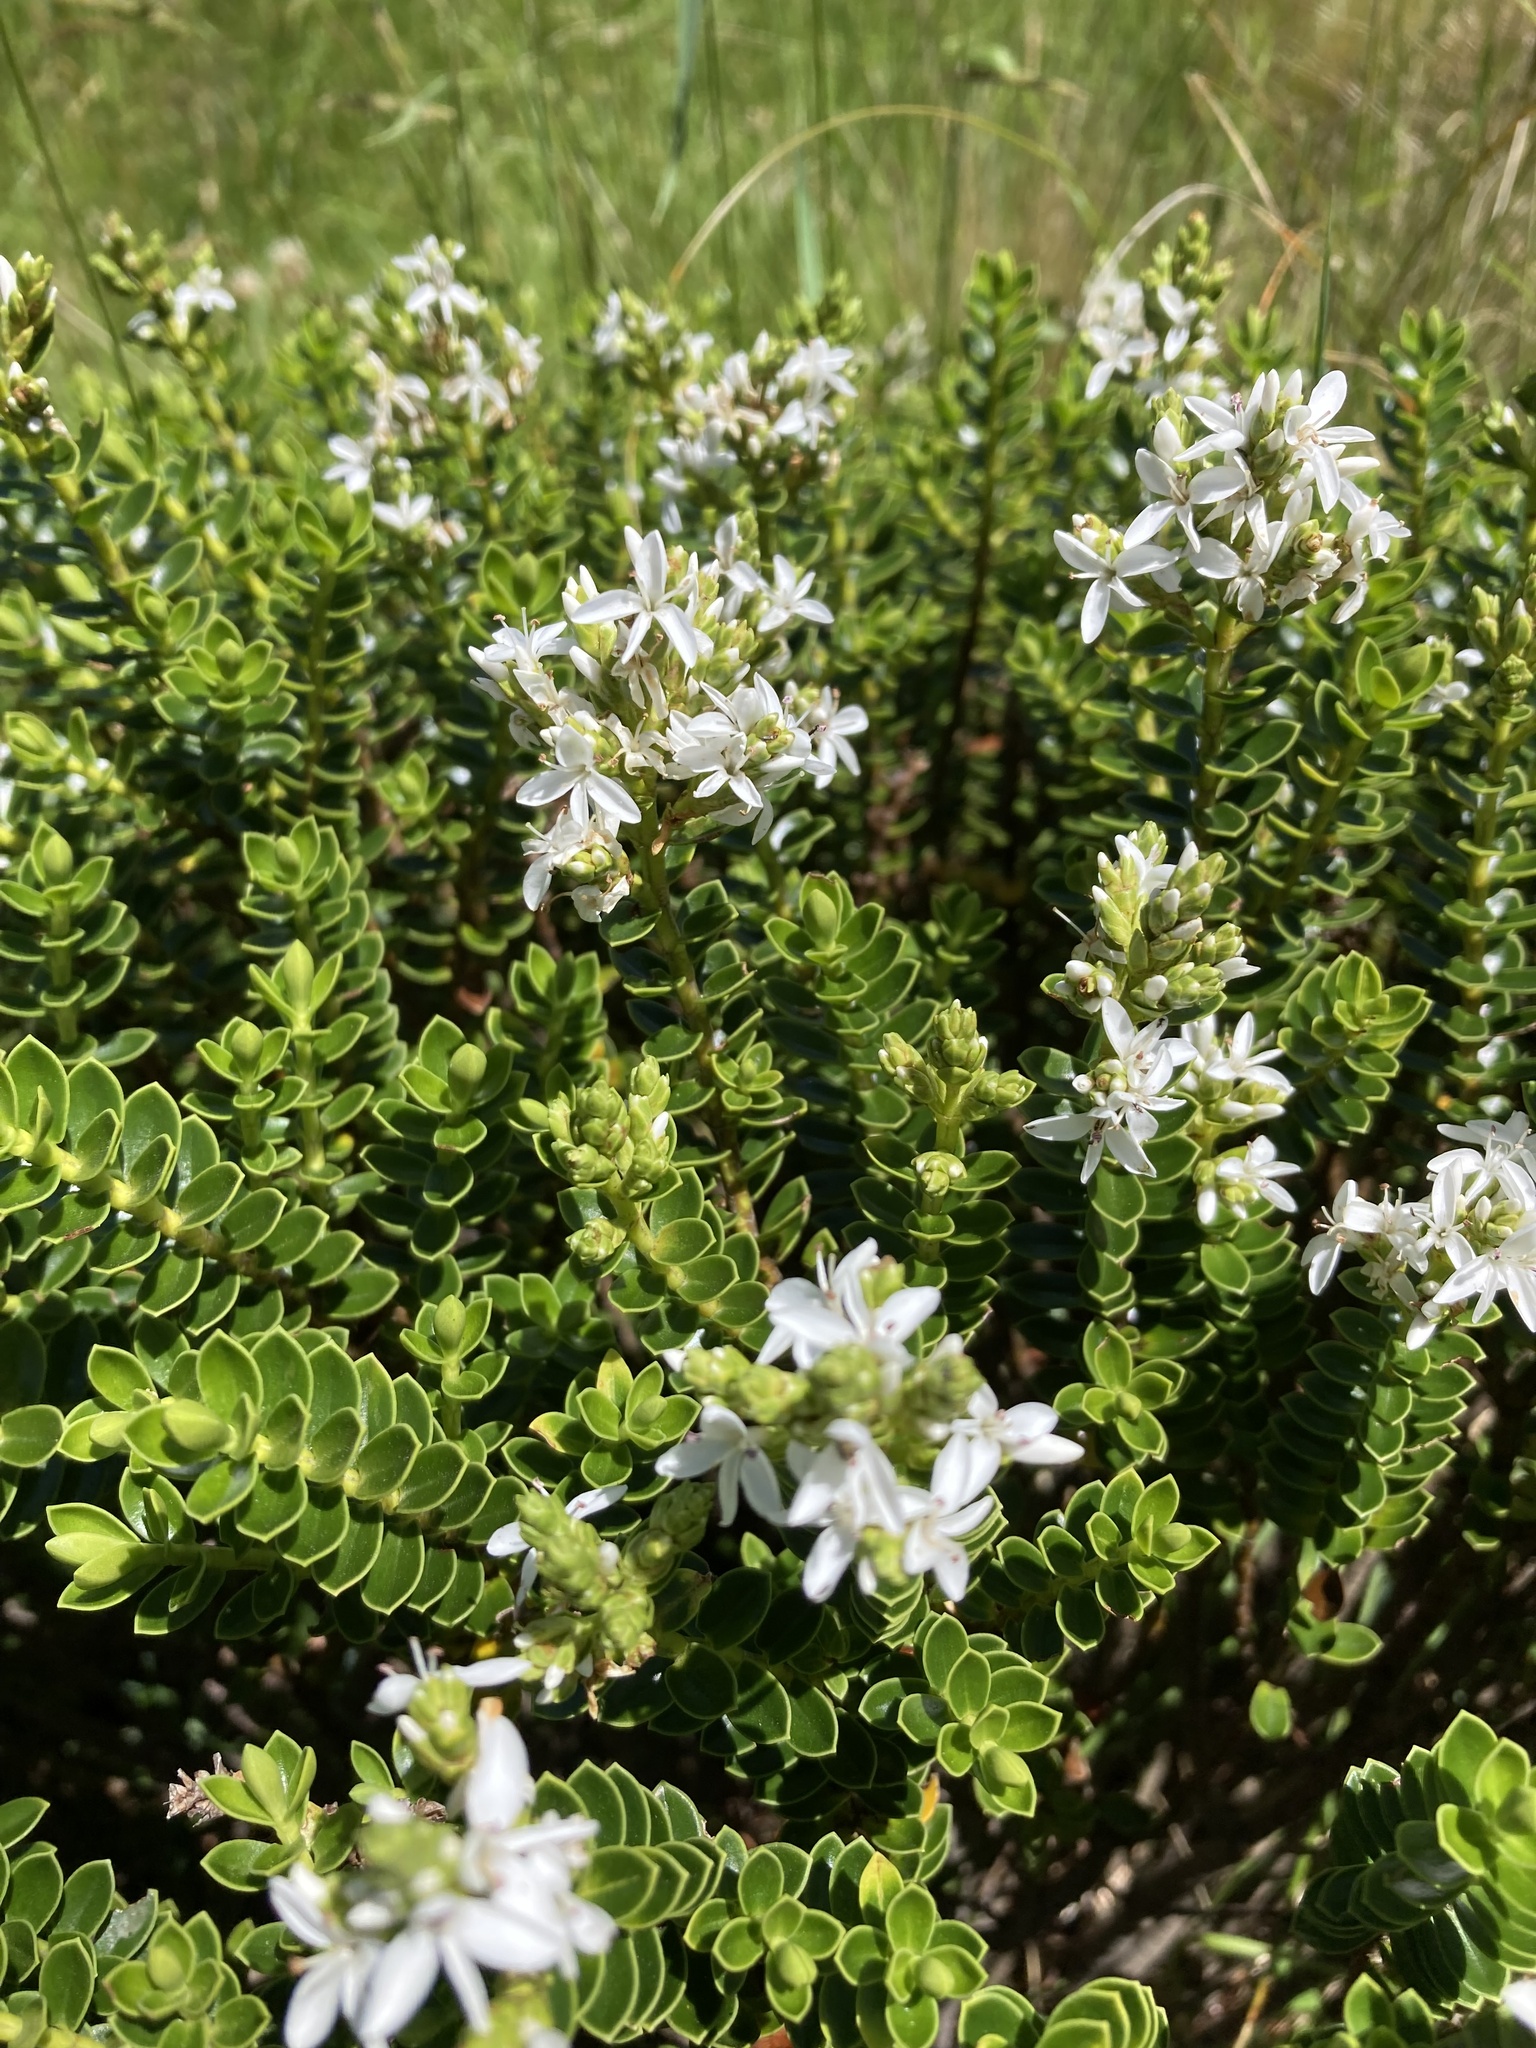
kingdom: Plantae
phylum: Tracheophyta
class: Magnoliopsida
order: Lamiales
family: Plantaginaceae
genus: Veronica
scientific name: Veronica odora
